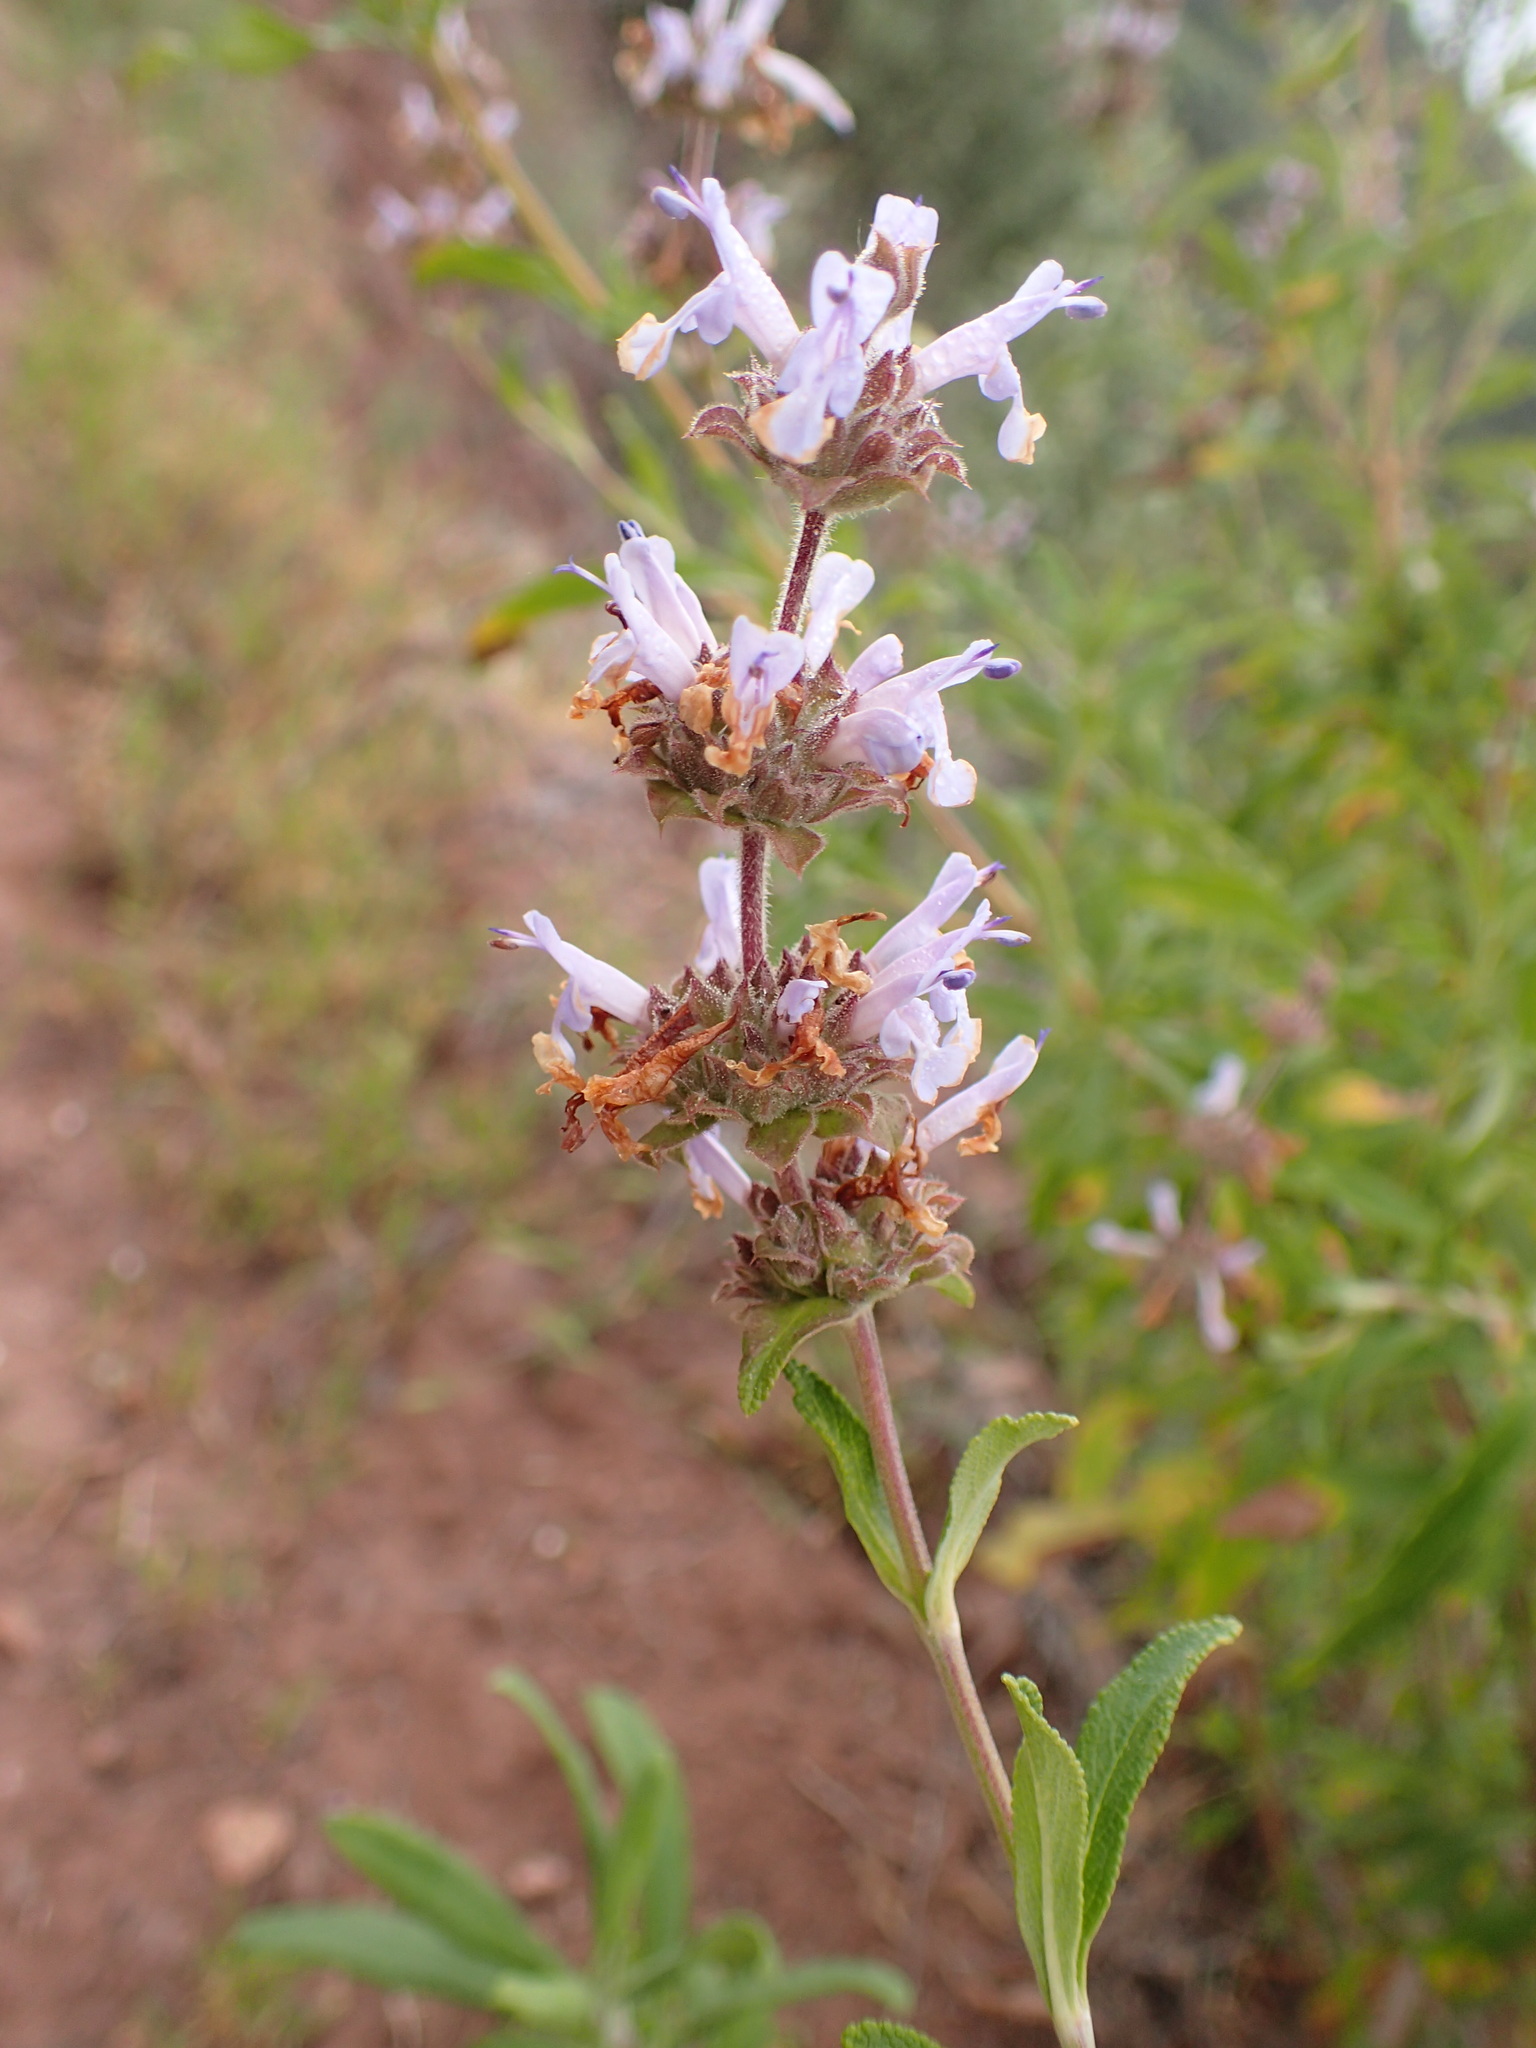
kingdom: Plantae
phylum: Tracheophyta
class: Magnoliopsida
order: Lamiales
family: Lamiaceae
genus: Salvia
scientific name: Salvia mellifera
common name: Black sage
